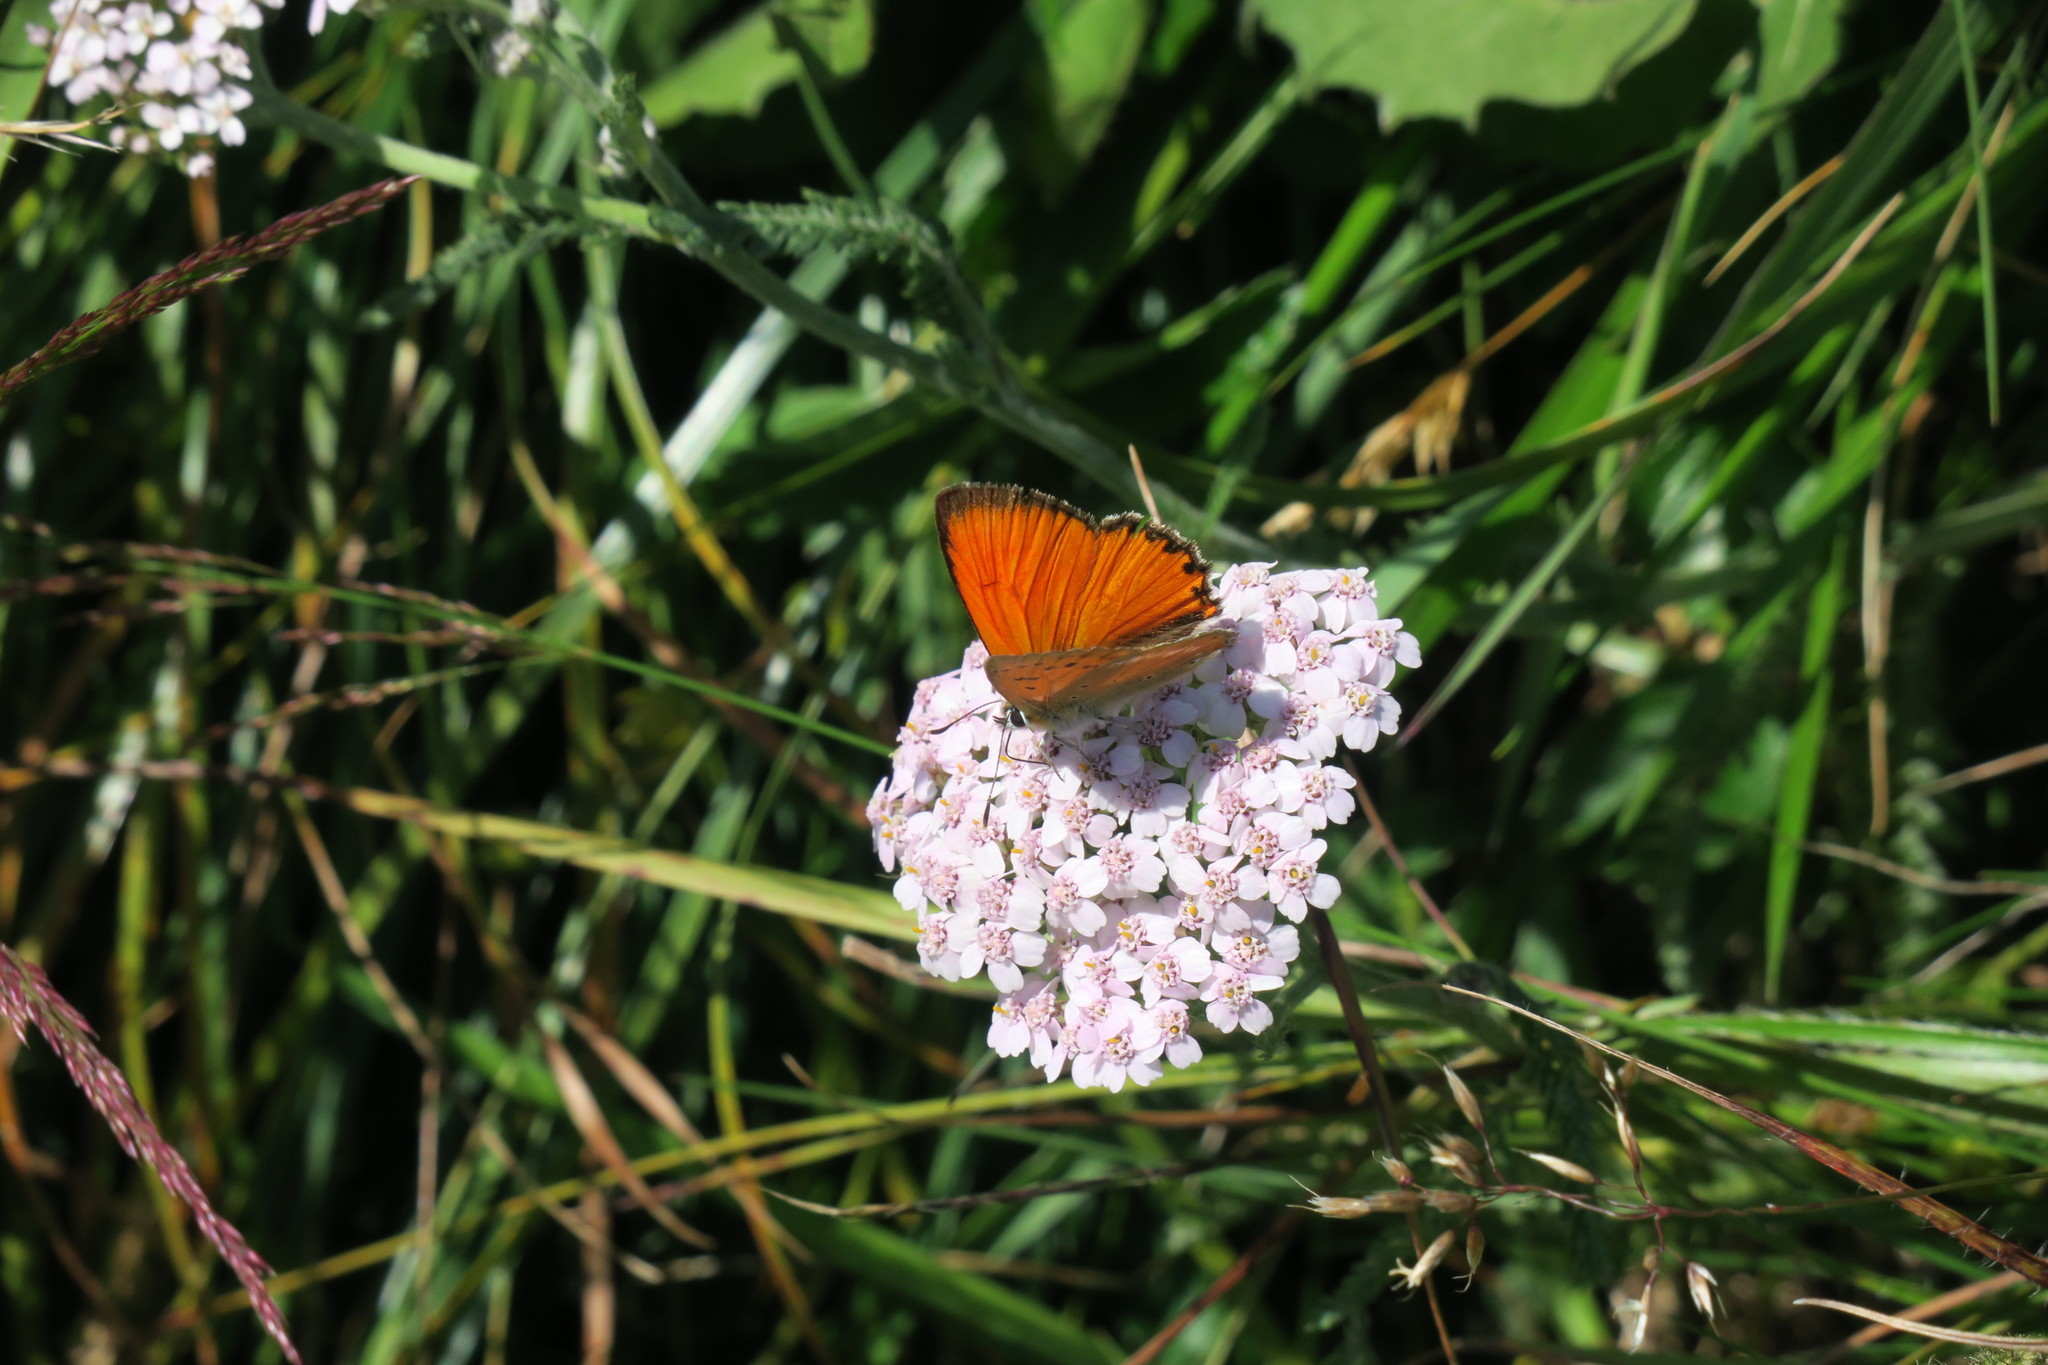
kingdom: Animalia
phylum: Arthropoda
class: Insecta
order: Lepidoptera
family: Lycaenidae
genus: Lycaena
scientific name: Lycaena virgaureae
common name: Scarce copper
